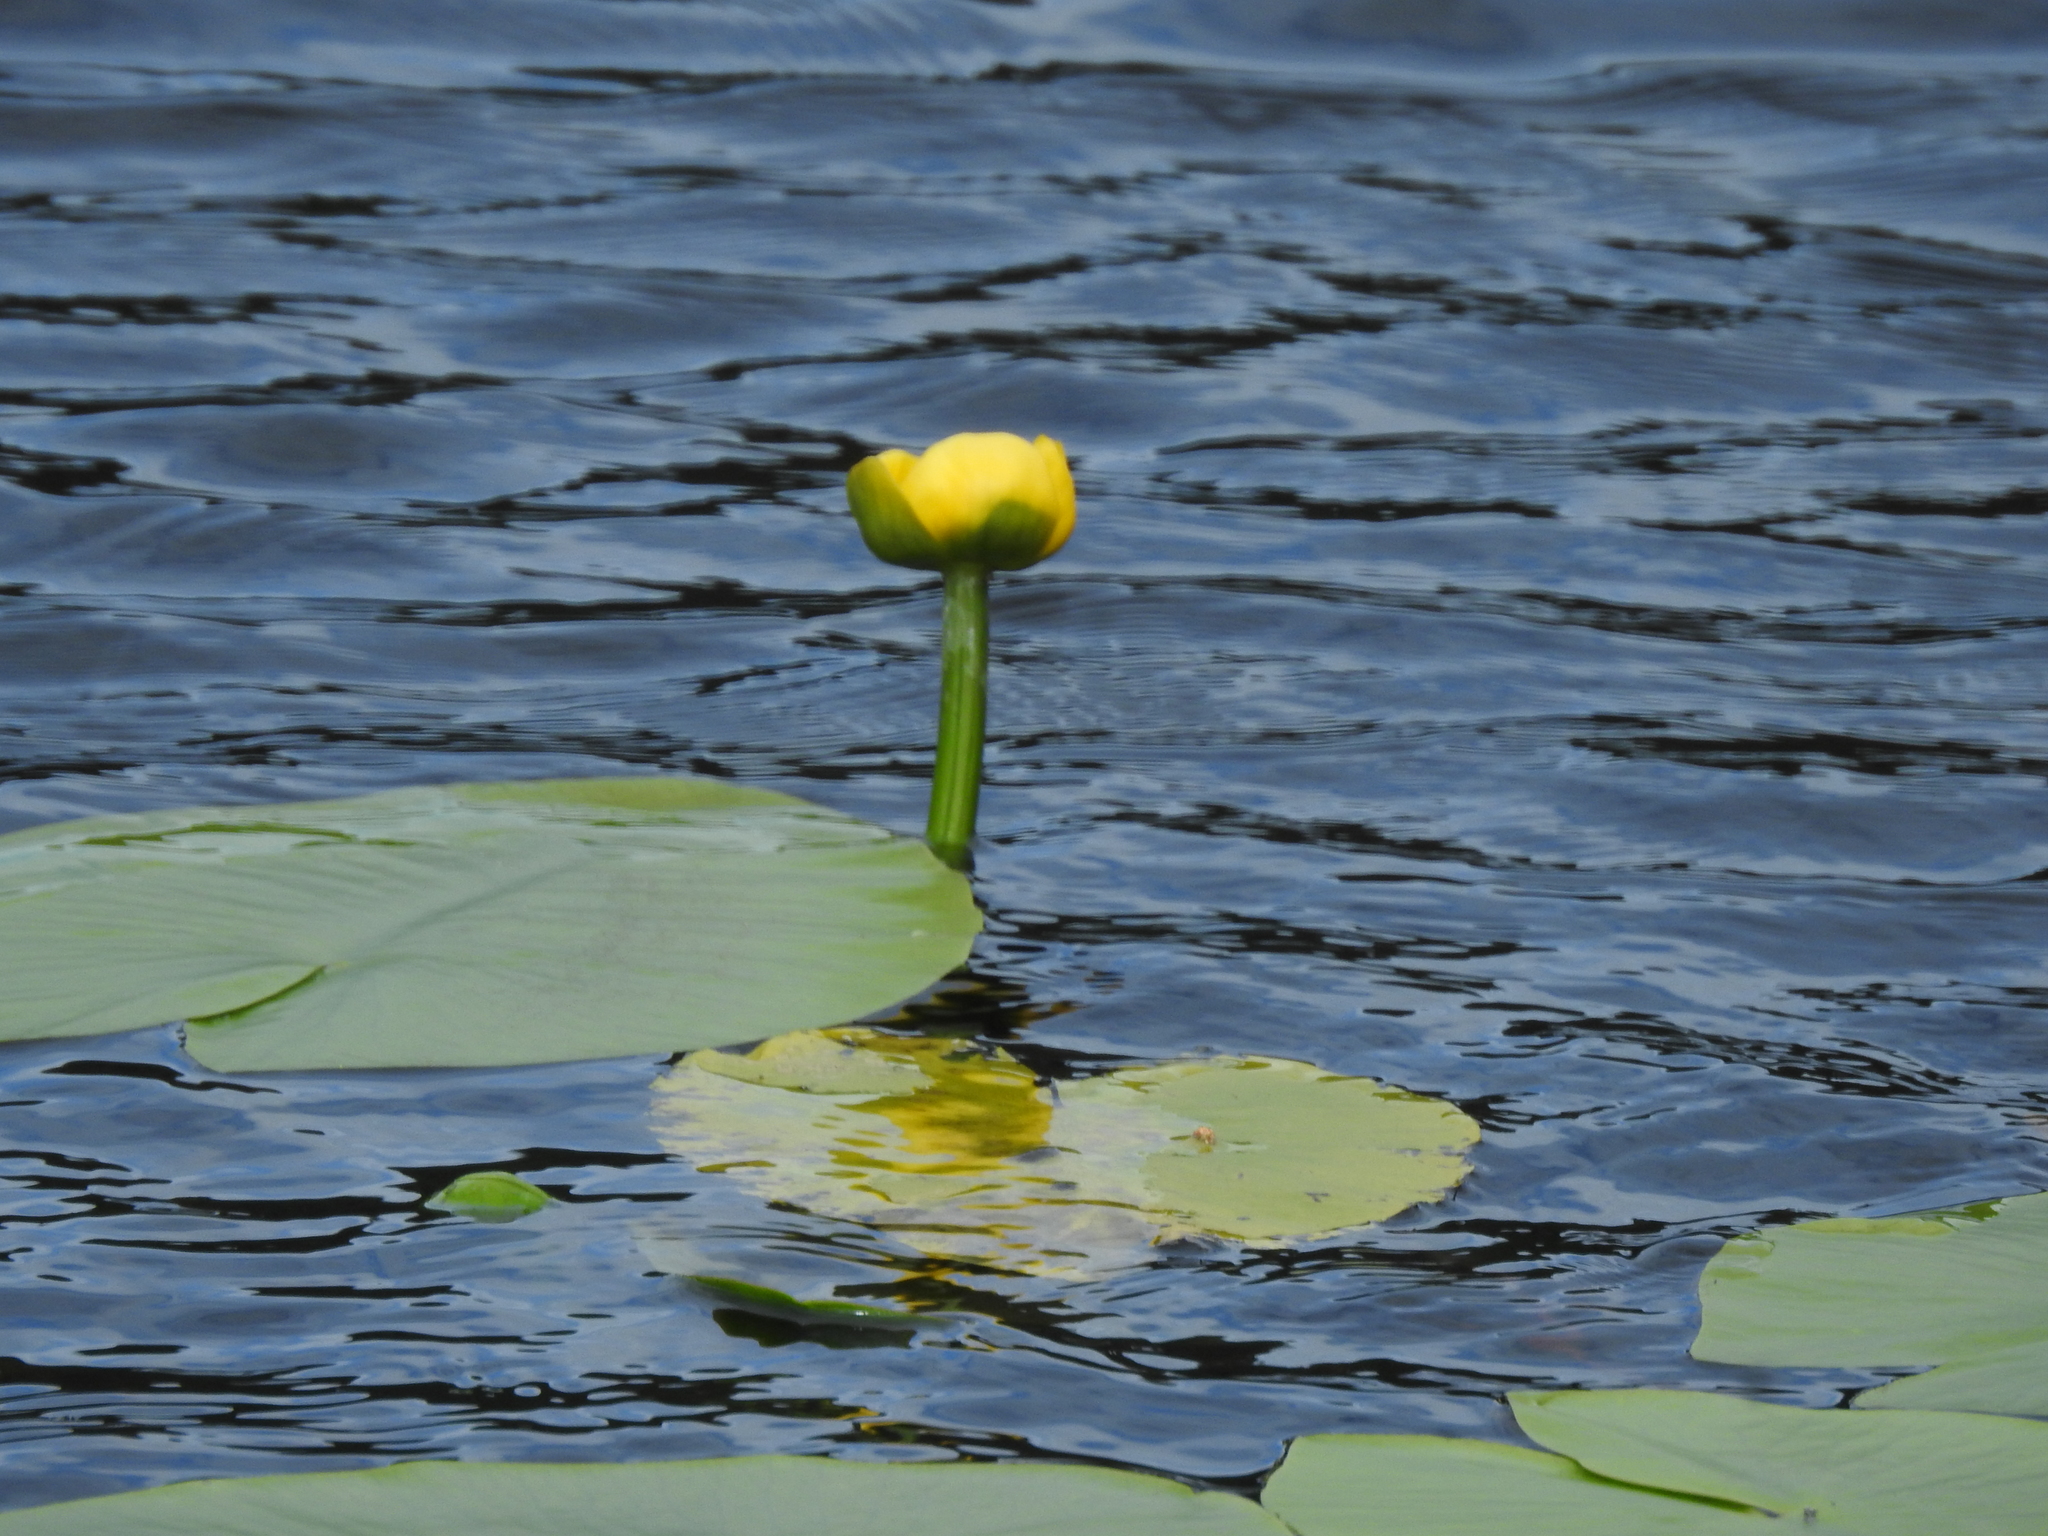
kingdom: Plantae
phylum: Tracheophyta
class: Magnoliopsida
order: Nymphaeales
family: Nymphaeaceae
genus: Nuphar
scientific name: Nuphar lutea
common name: Yellow water-lily
